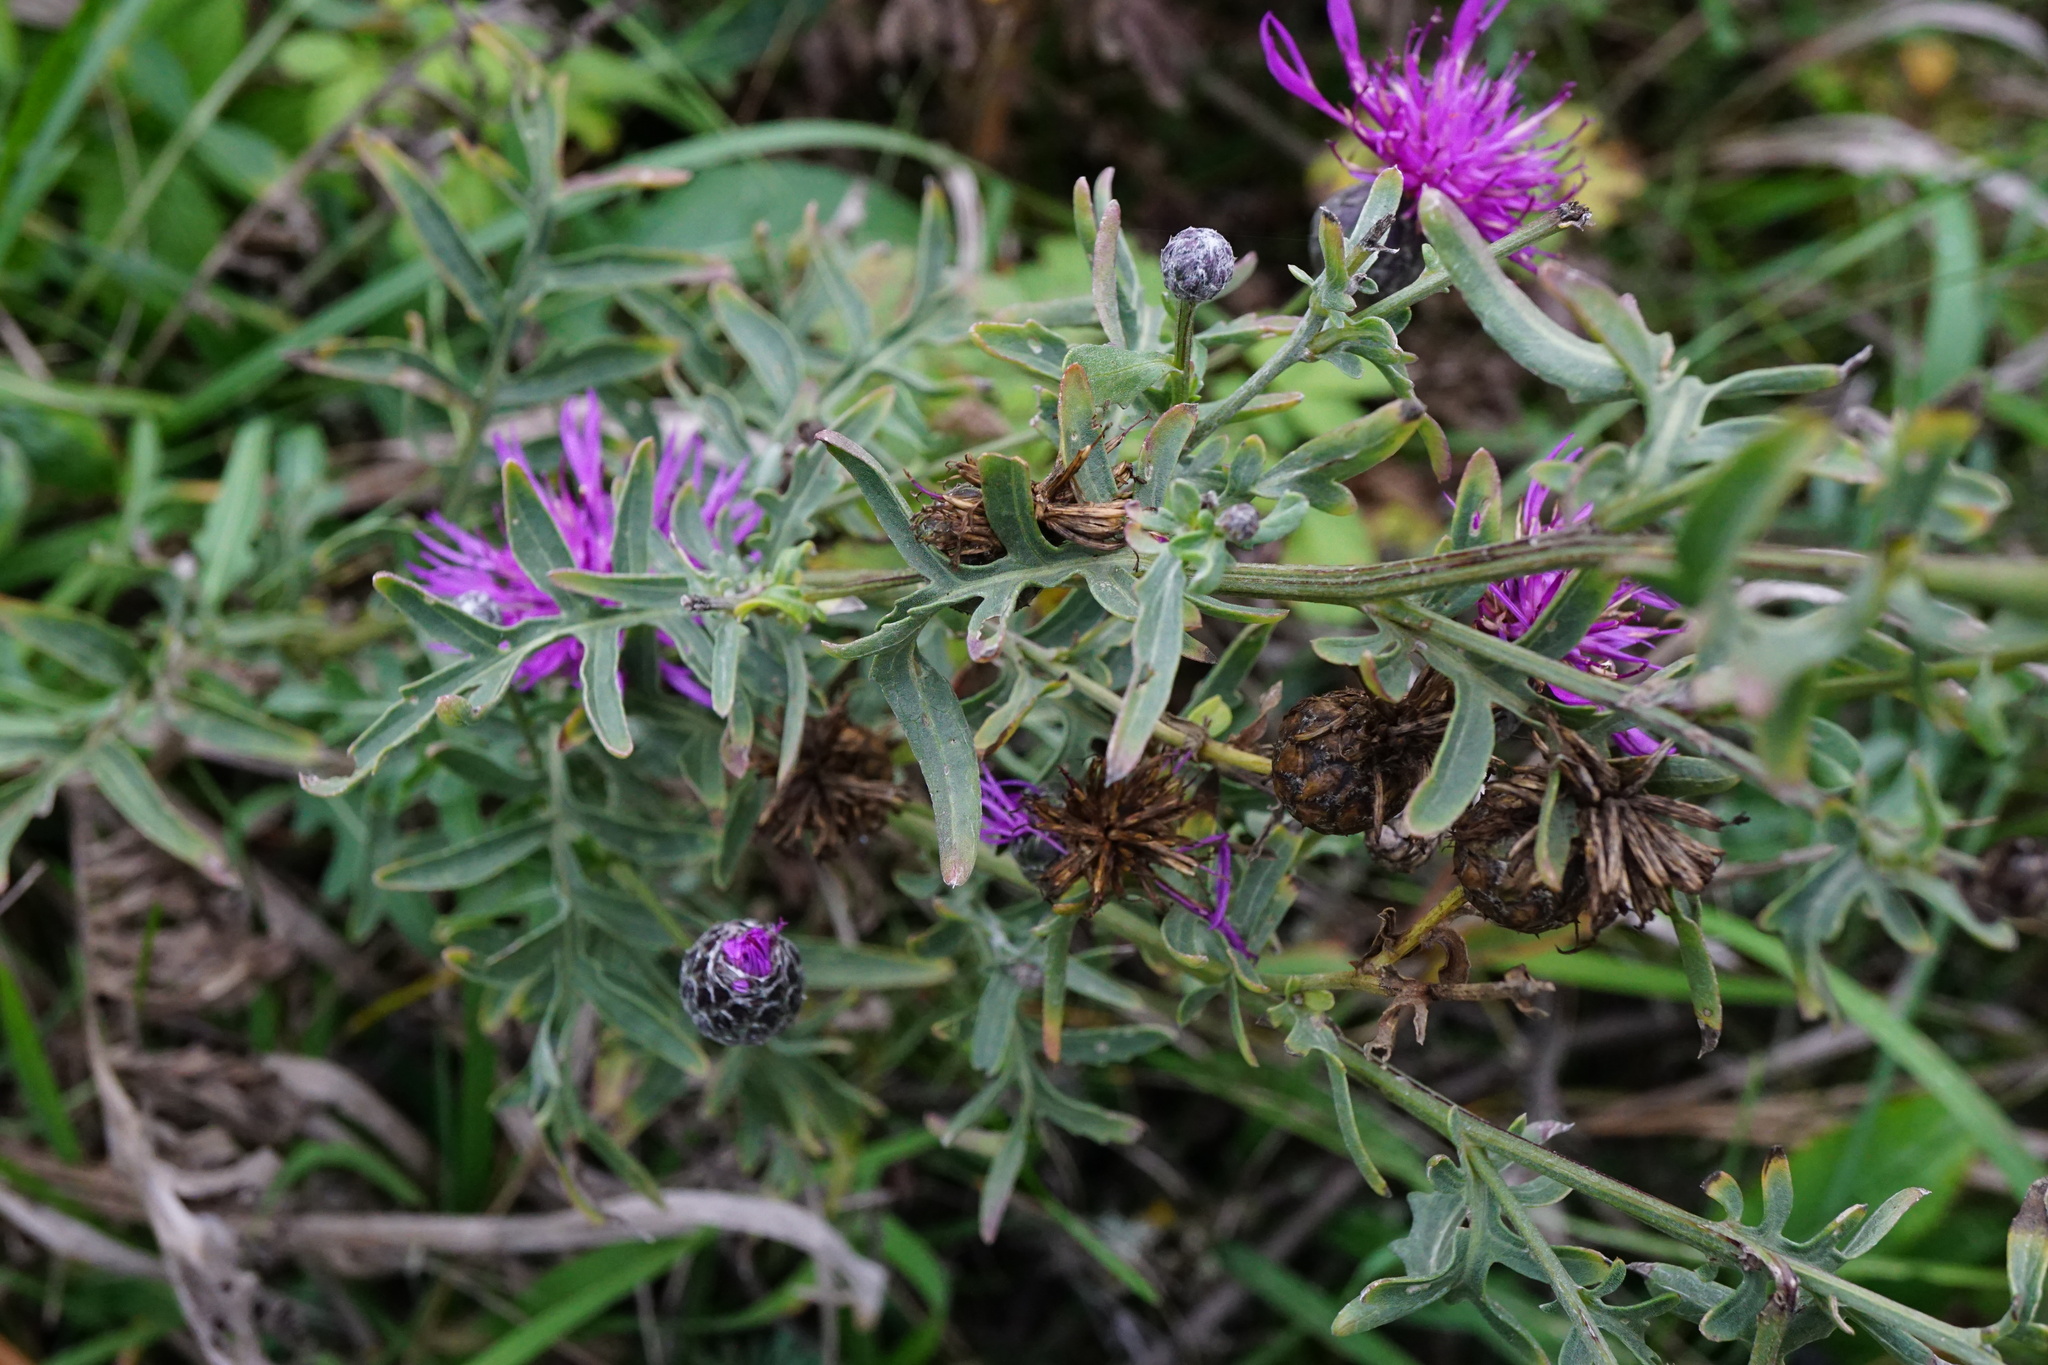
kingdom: Plantae
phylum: Tracheophyta
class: Magnoliopsida
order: Asterales
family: Asteraceae
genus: Centaurea
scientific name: Centaurea scabiosa
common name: Greater knapweed
